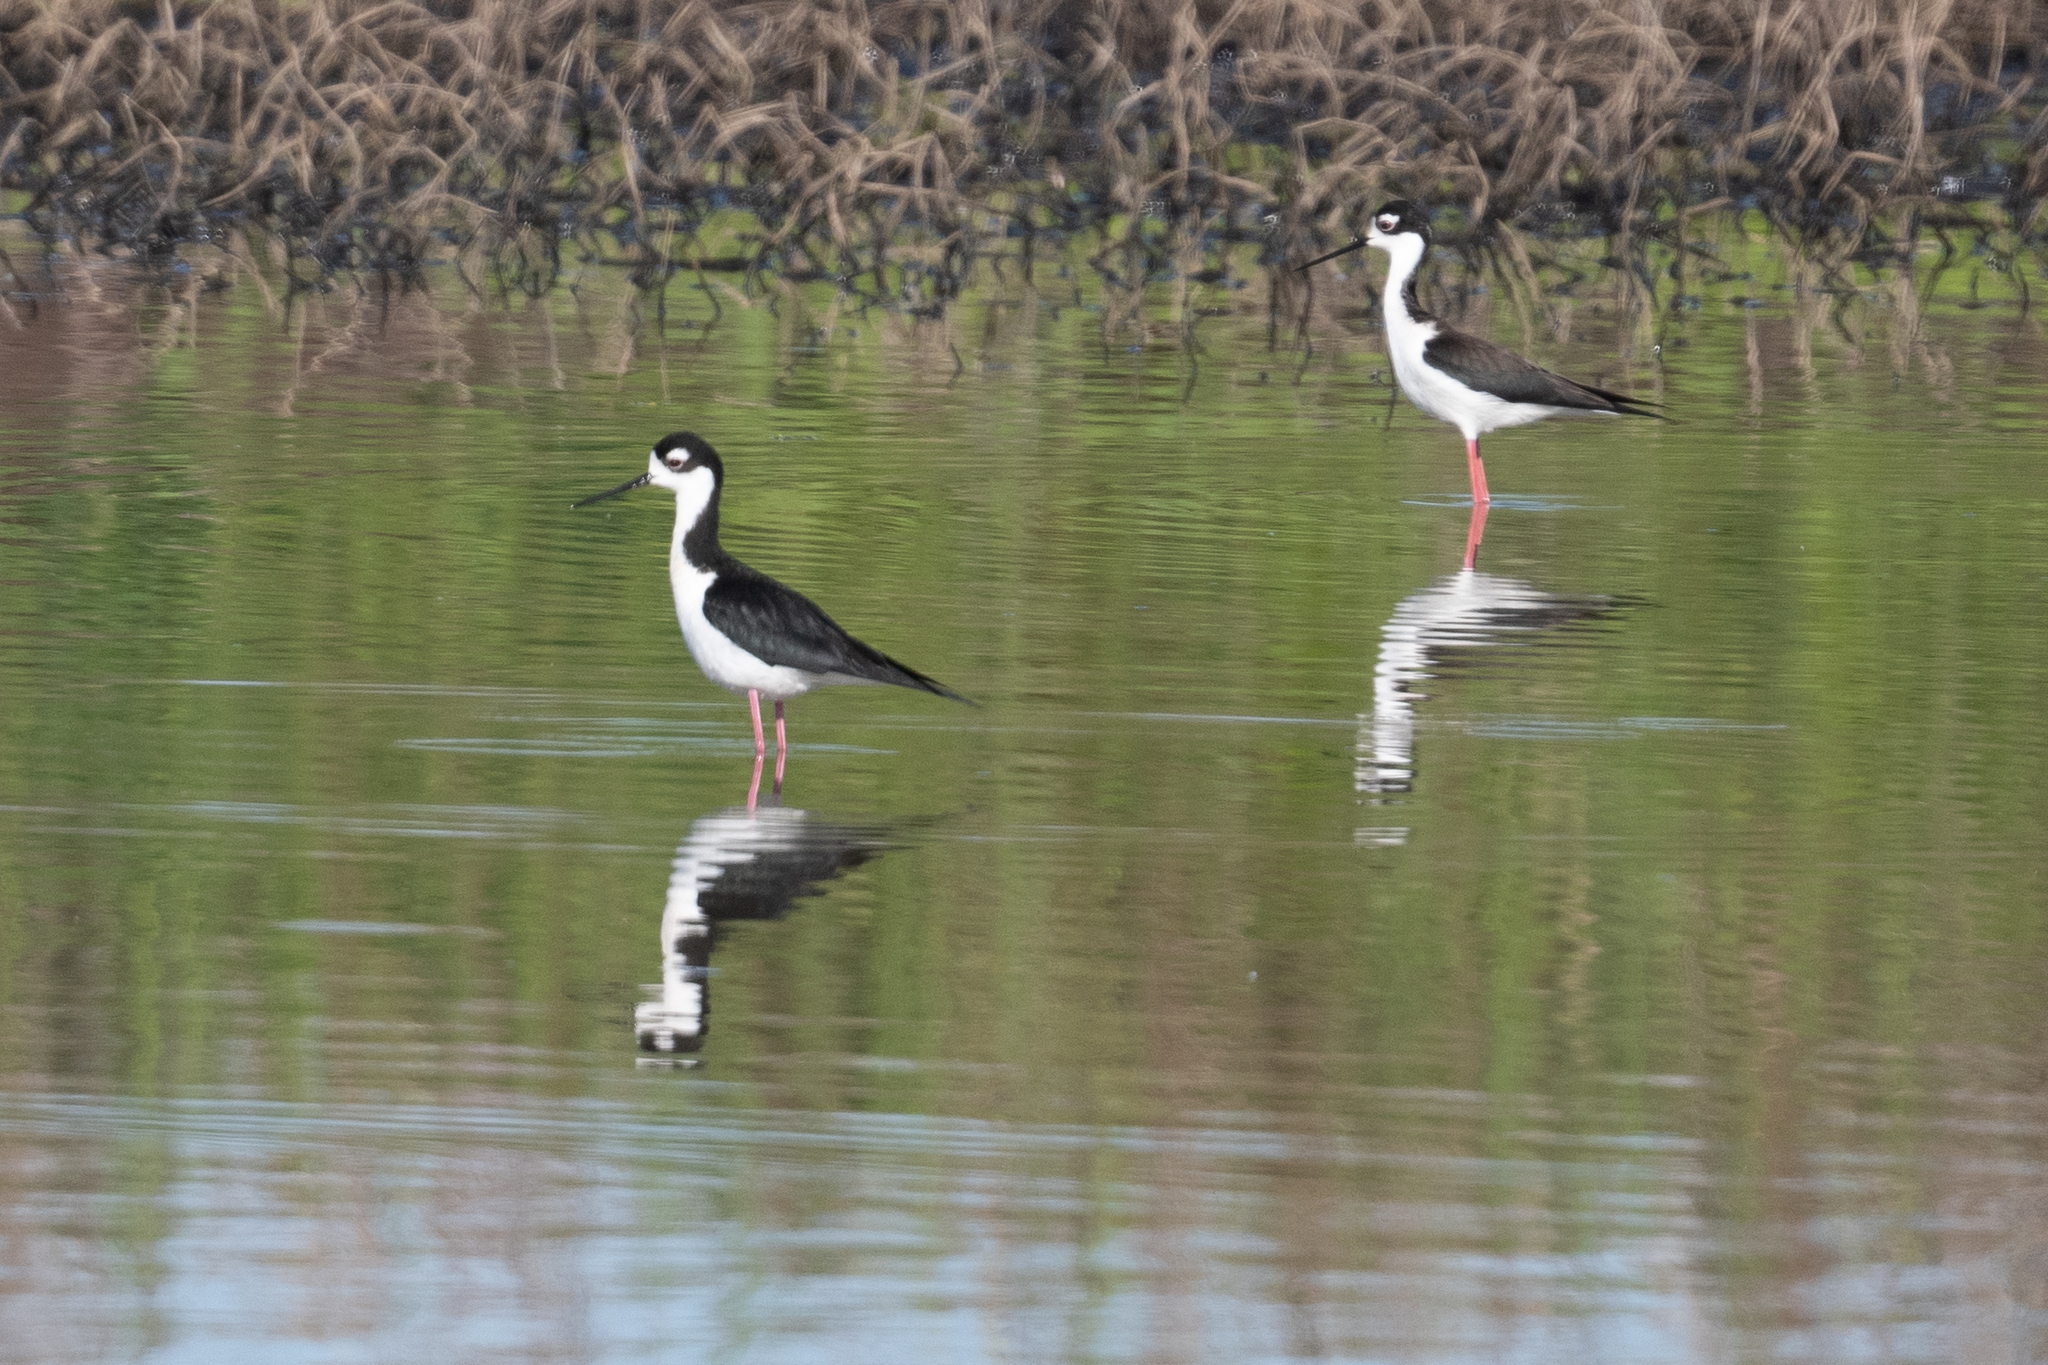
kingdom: Animalia
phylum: Chordata
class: Aves
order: Charadriiformes
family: Recurvirostridae
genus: Himantopus
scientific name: Himantopus mexicanus
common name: Black-necked stilt
